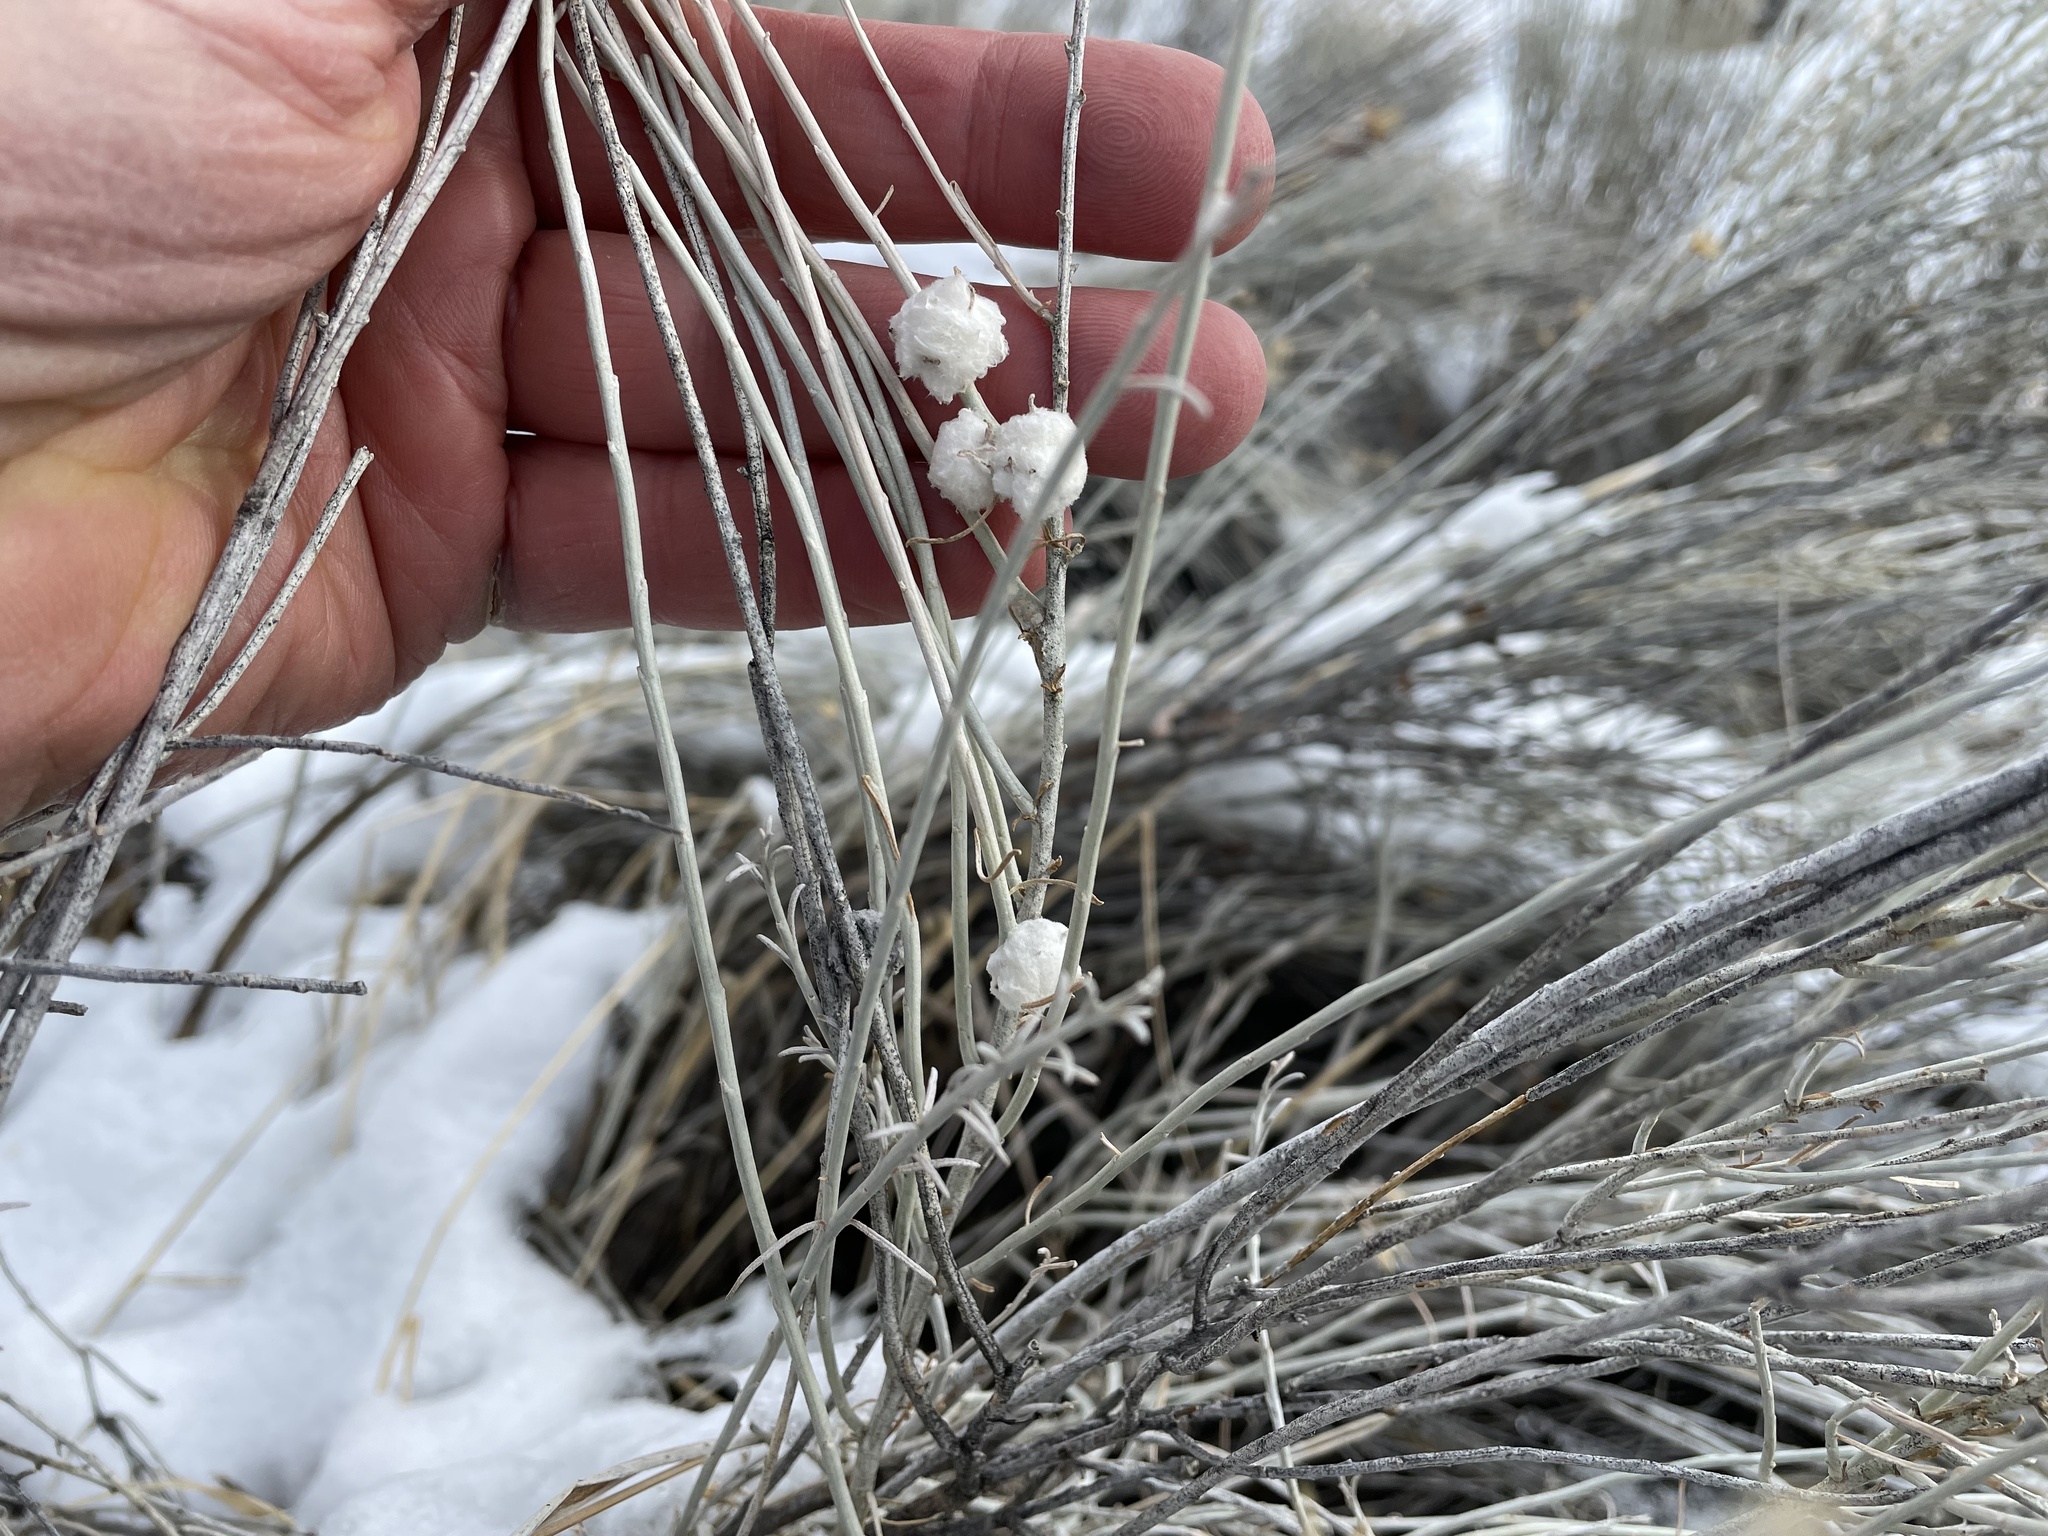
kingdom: Animalia
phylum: Arthropoda
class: Insecta
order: Diptera
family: Tephritidae
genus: Aciurina
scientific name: Aciurina bigeloviae
